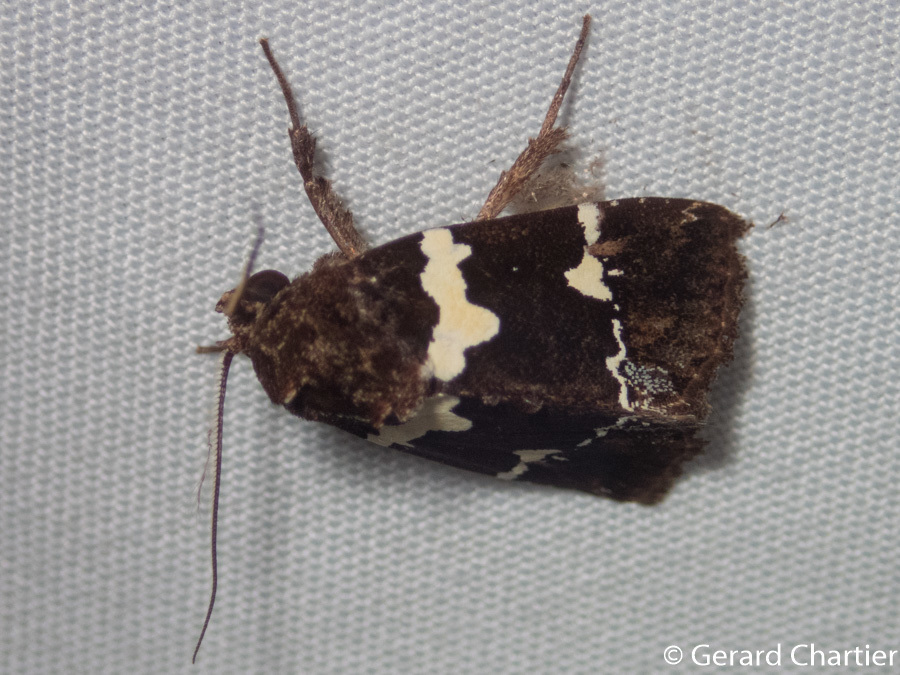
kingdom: Animalia
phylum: Arthropoda
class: Insecta
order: Lepidoptera
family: Noctuidae
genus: Borbotana
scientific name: Borbotana nivifascia
